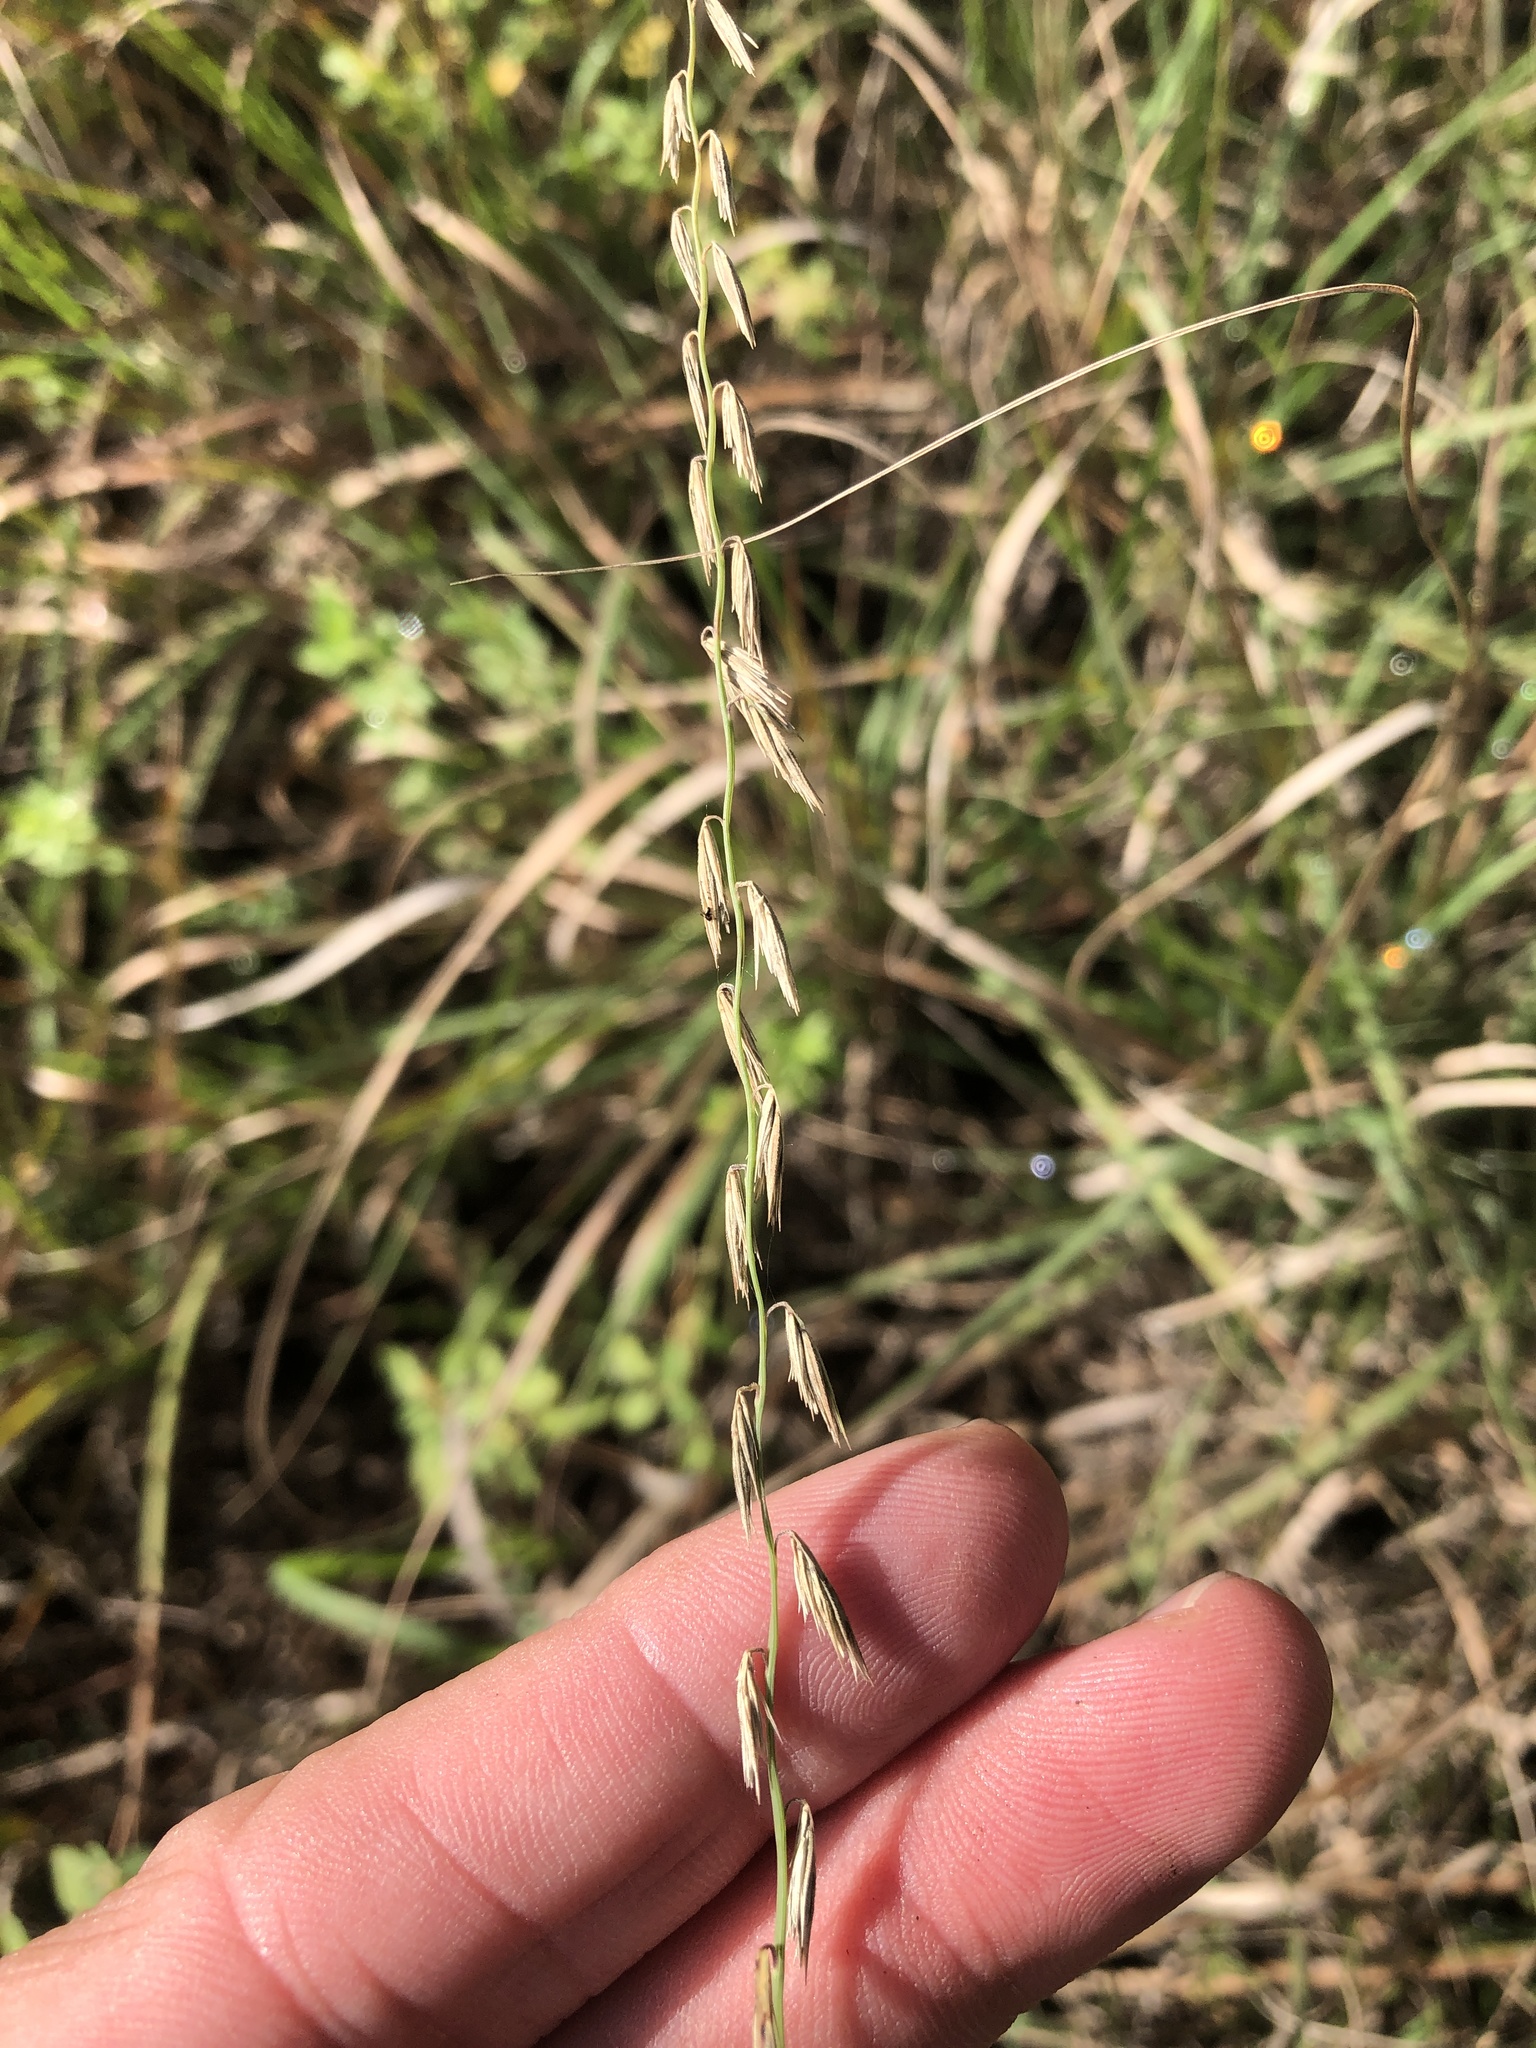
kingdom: Plantae
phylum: Tracheophyta
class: Liliopsida
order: Poales
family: Poaceae
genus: Bouteloua
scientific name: Bouteloua curtipendula
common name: Side-oats grama
